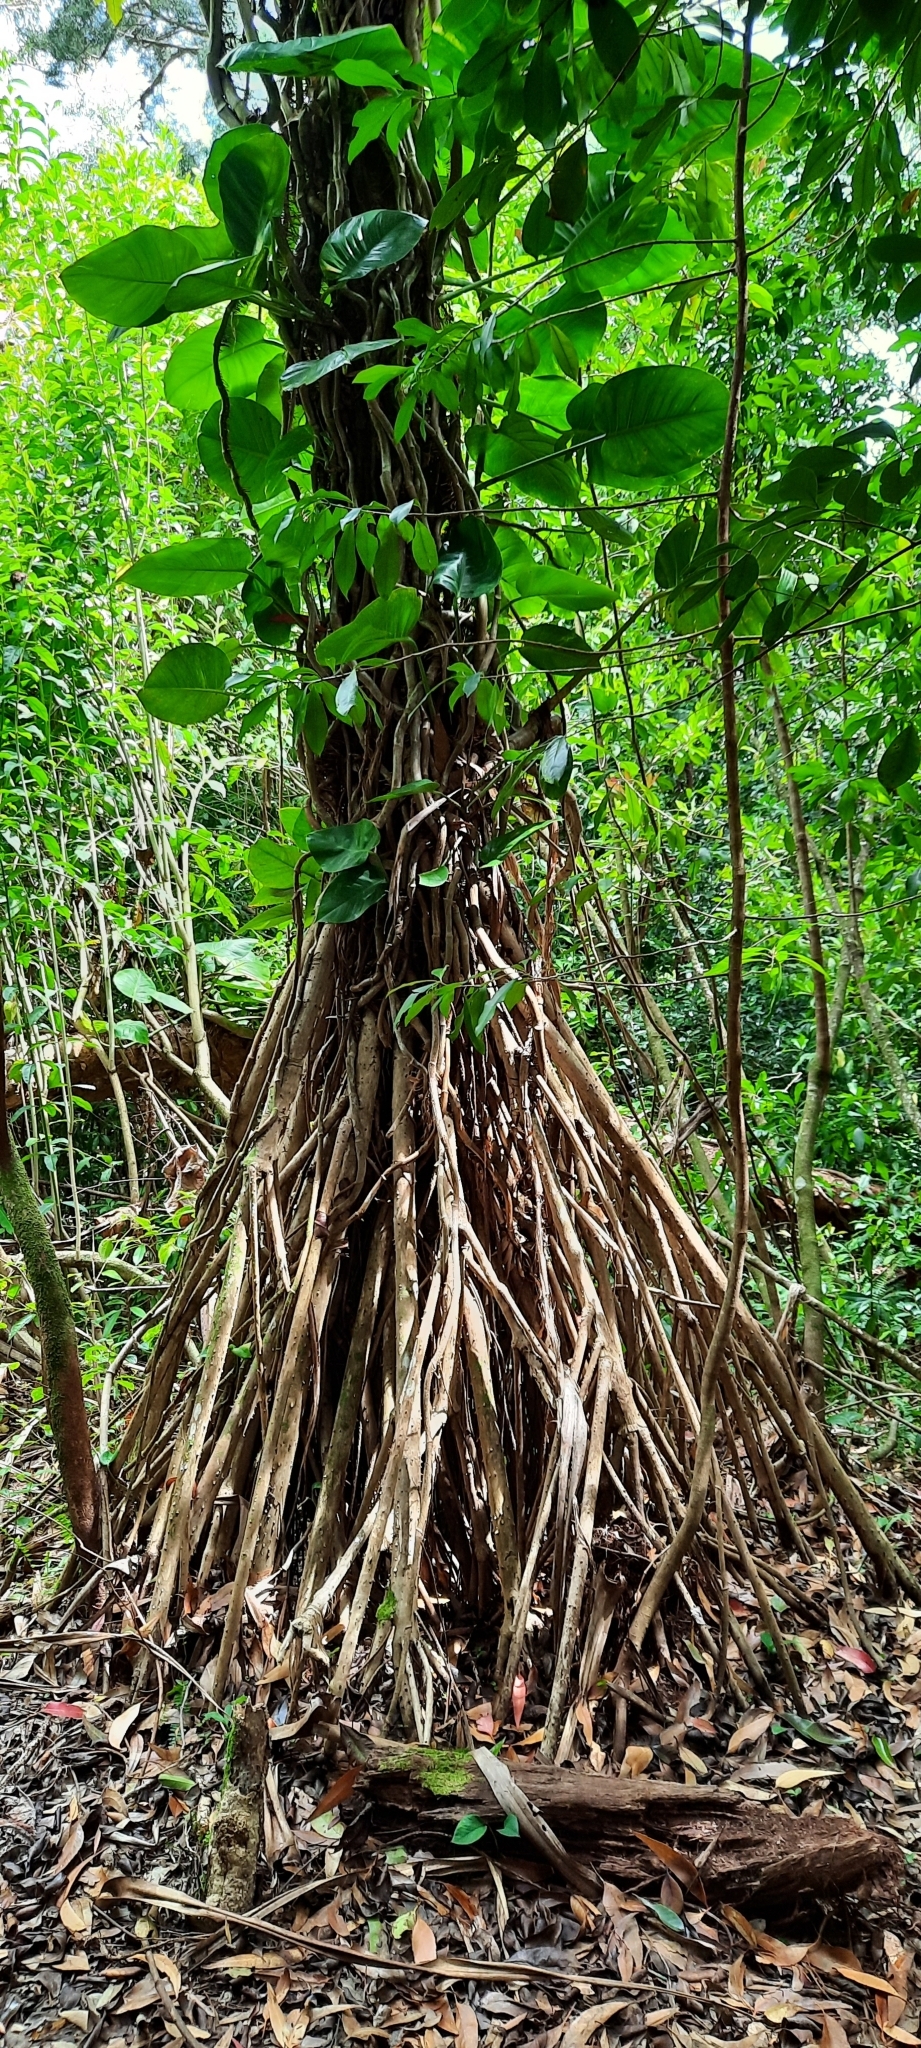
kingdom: Plantae
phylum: Tracheophyta
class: Liliopsida
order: Pandanales
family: Pandanaceae
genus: Pandanus
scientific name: Pandanus tectorius
